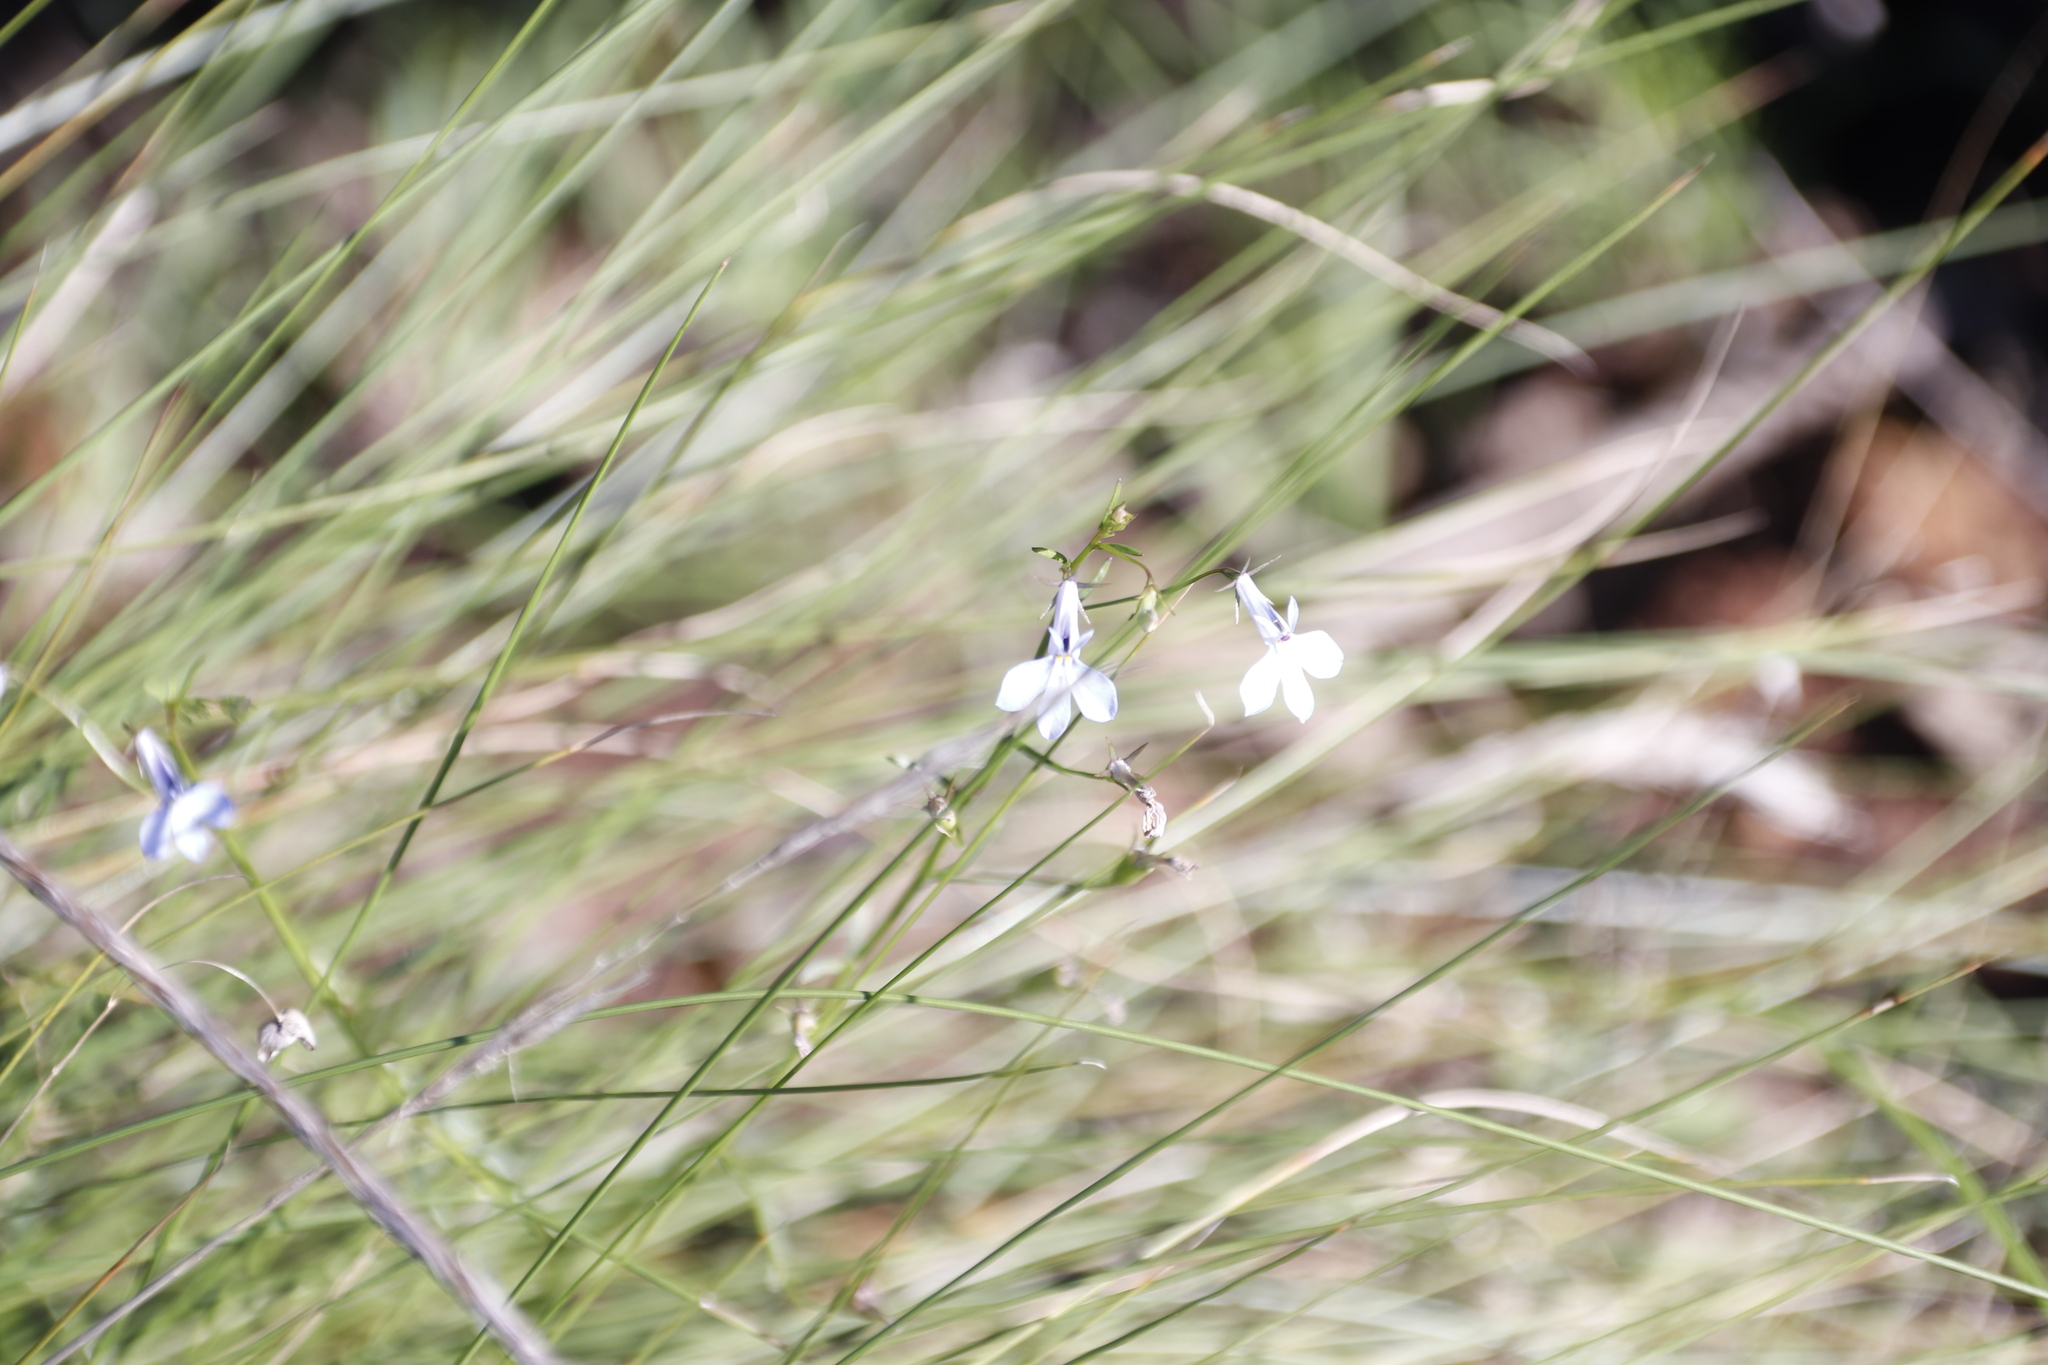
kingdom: Plantae
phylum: Tracheophyta
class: Magnoliopsida
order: Asterales
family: Campanulaceae
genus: Lobelia
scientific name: Lobelia erinus
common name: Edging lobelia
